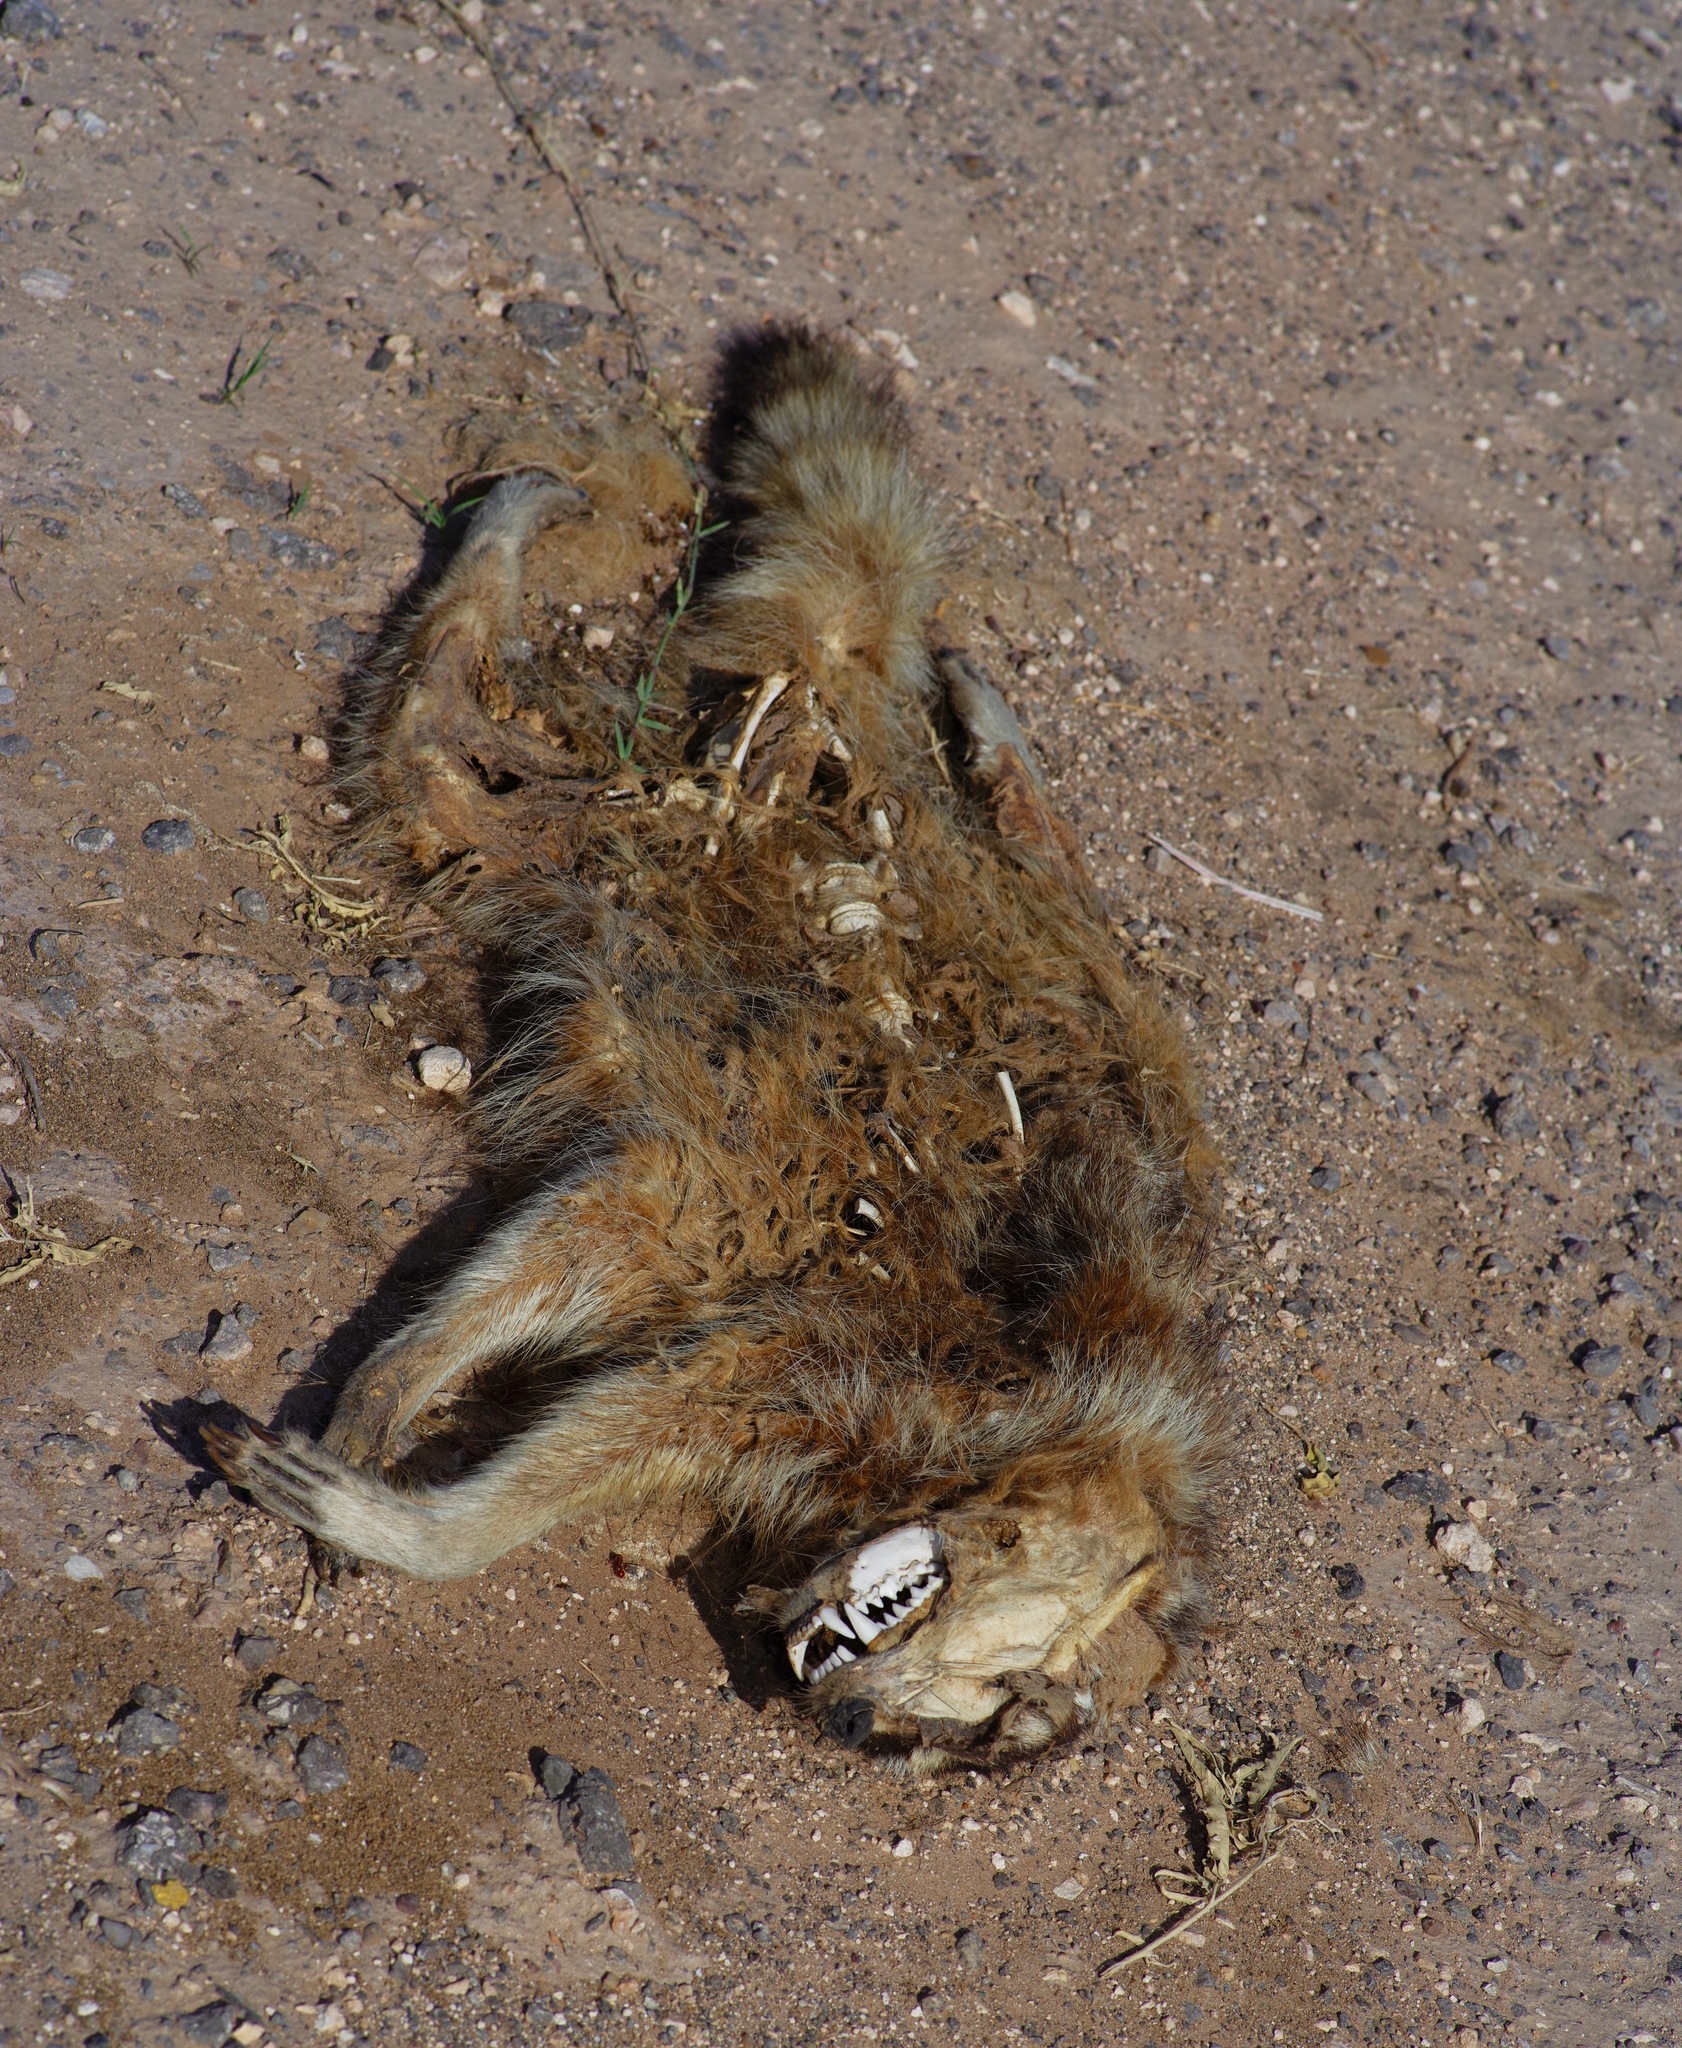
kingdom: Animalia
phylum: Chordata
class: Mammalia
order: Carnivora
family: Procyonidae
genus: Procyon
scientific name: Procyon lotor
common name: Raccoon
